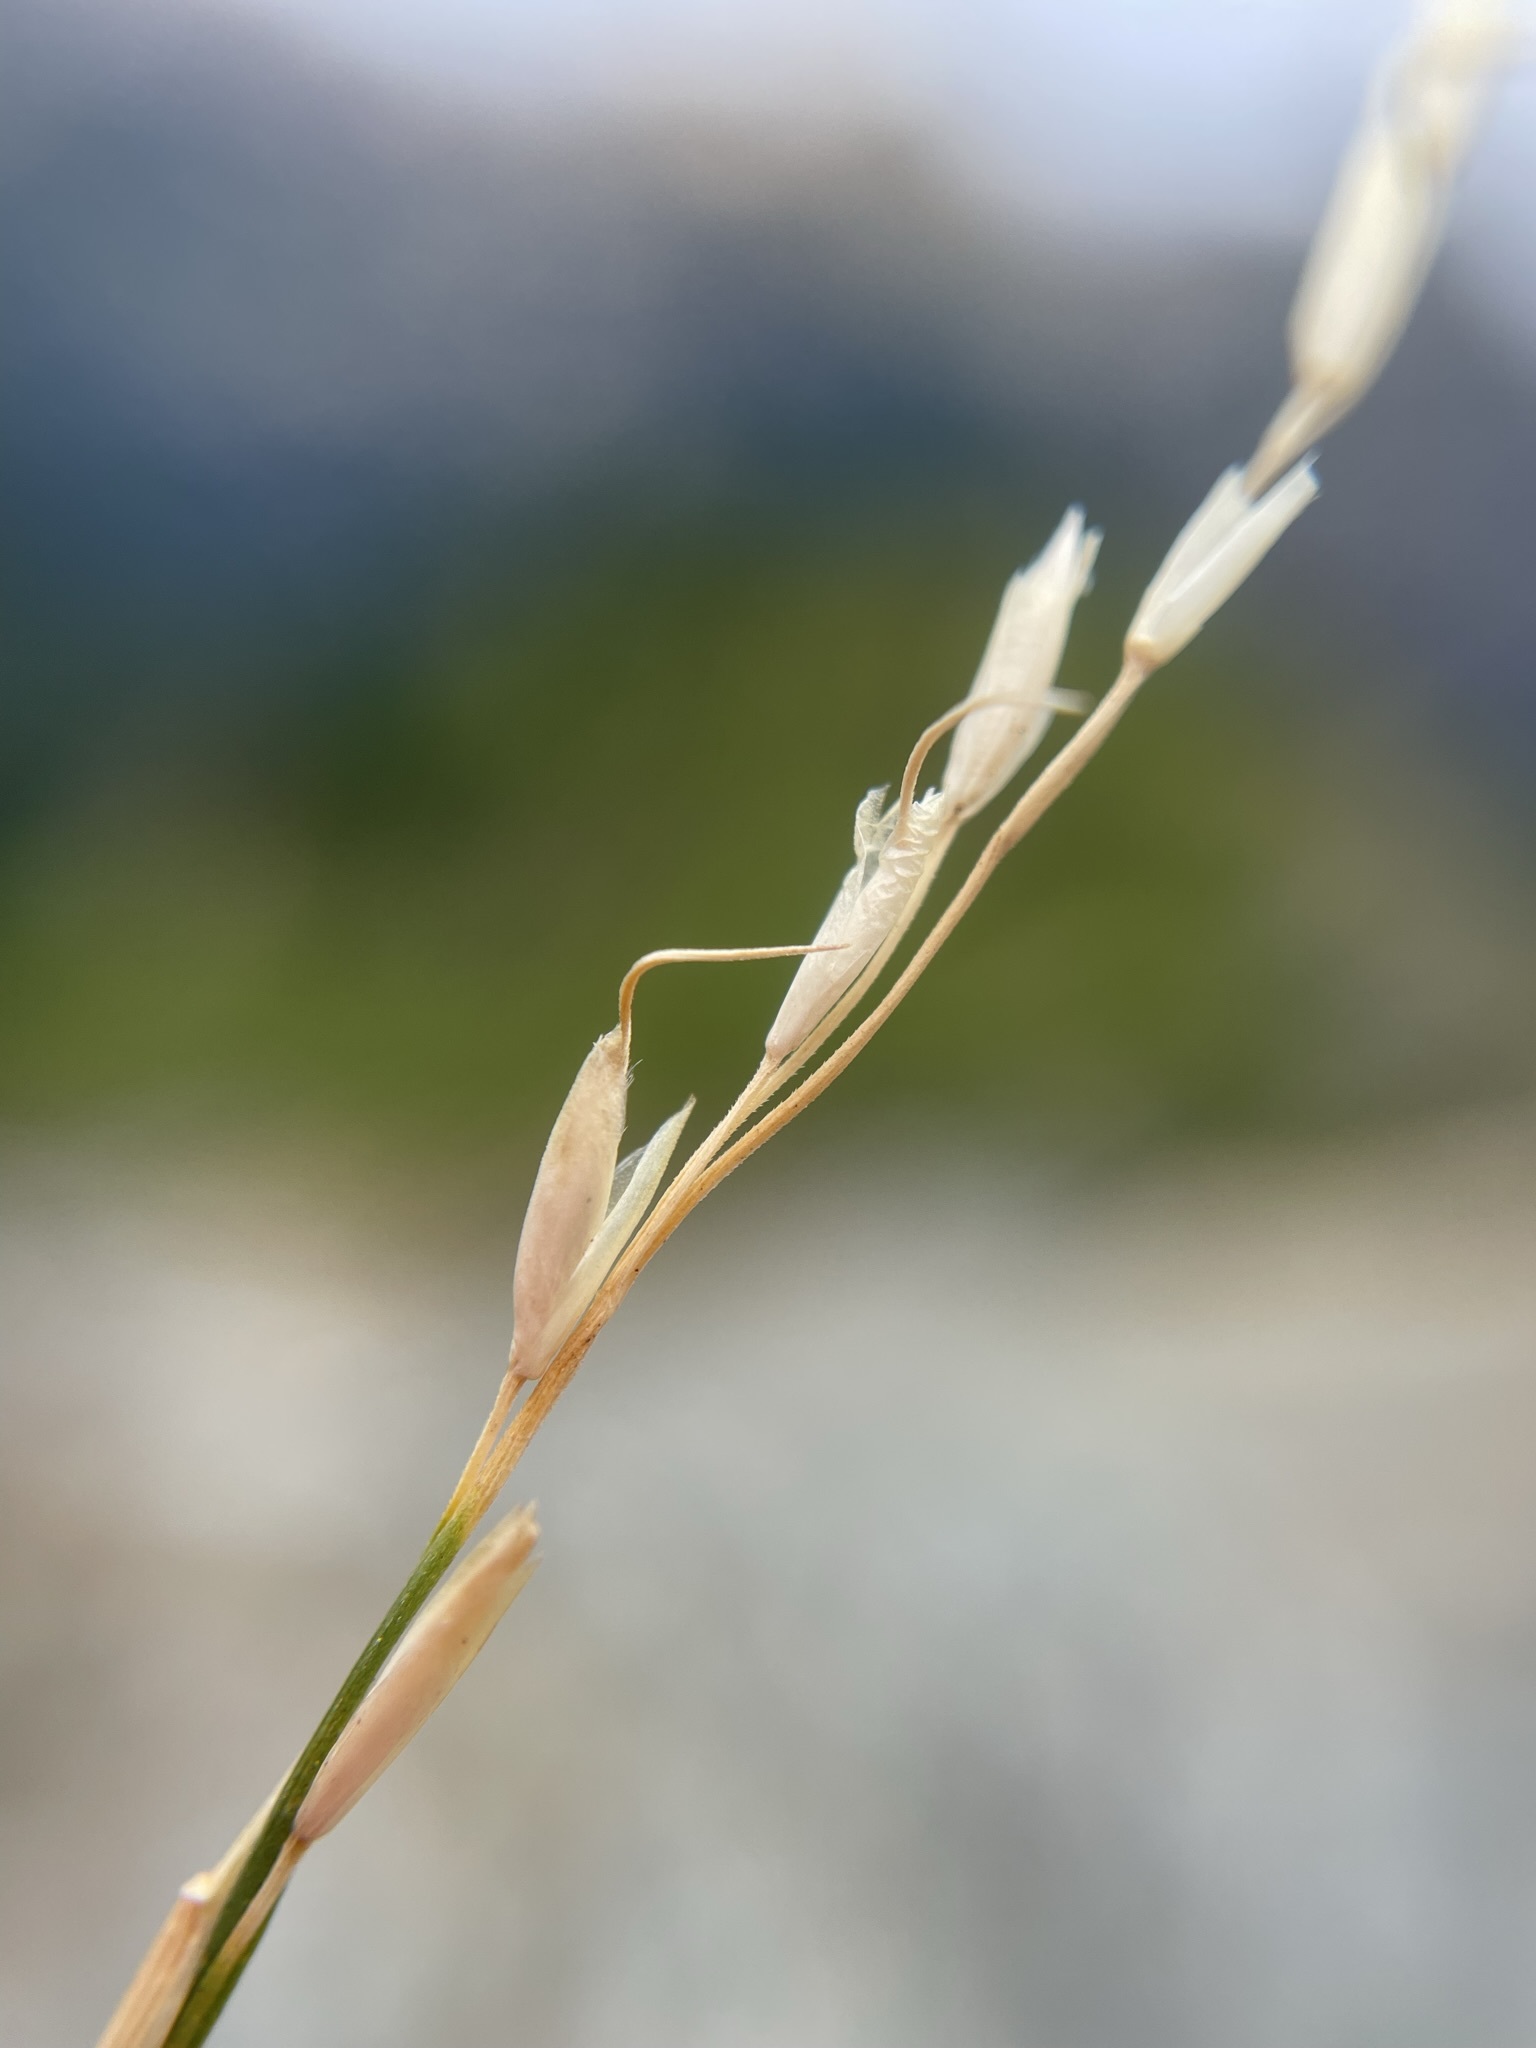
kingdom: Plantae
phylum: Tracheophyta
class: Liliopsida
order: Poales
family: Poaceae
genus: Piptatheropsis
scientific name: Piptatheropsis exigua
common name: Little mountain ricegrass
